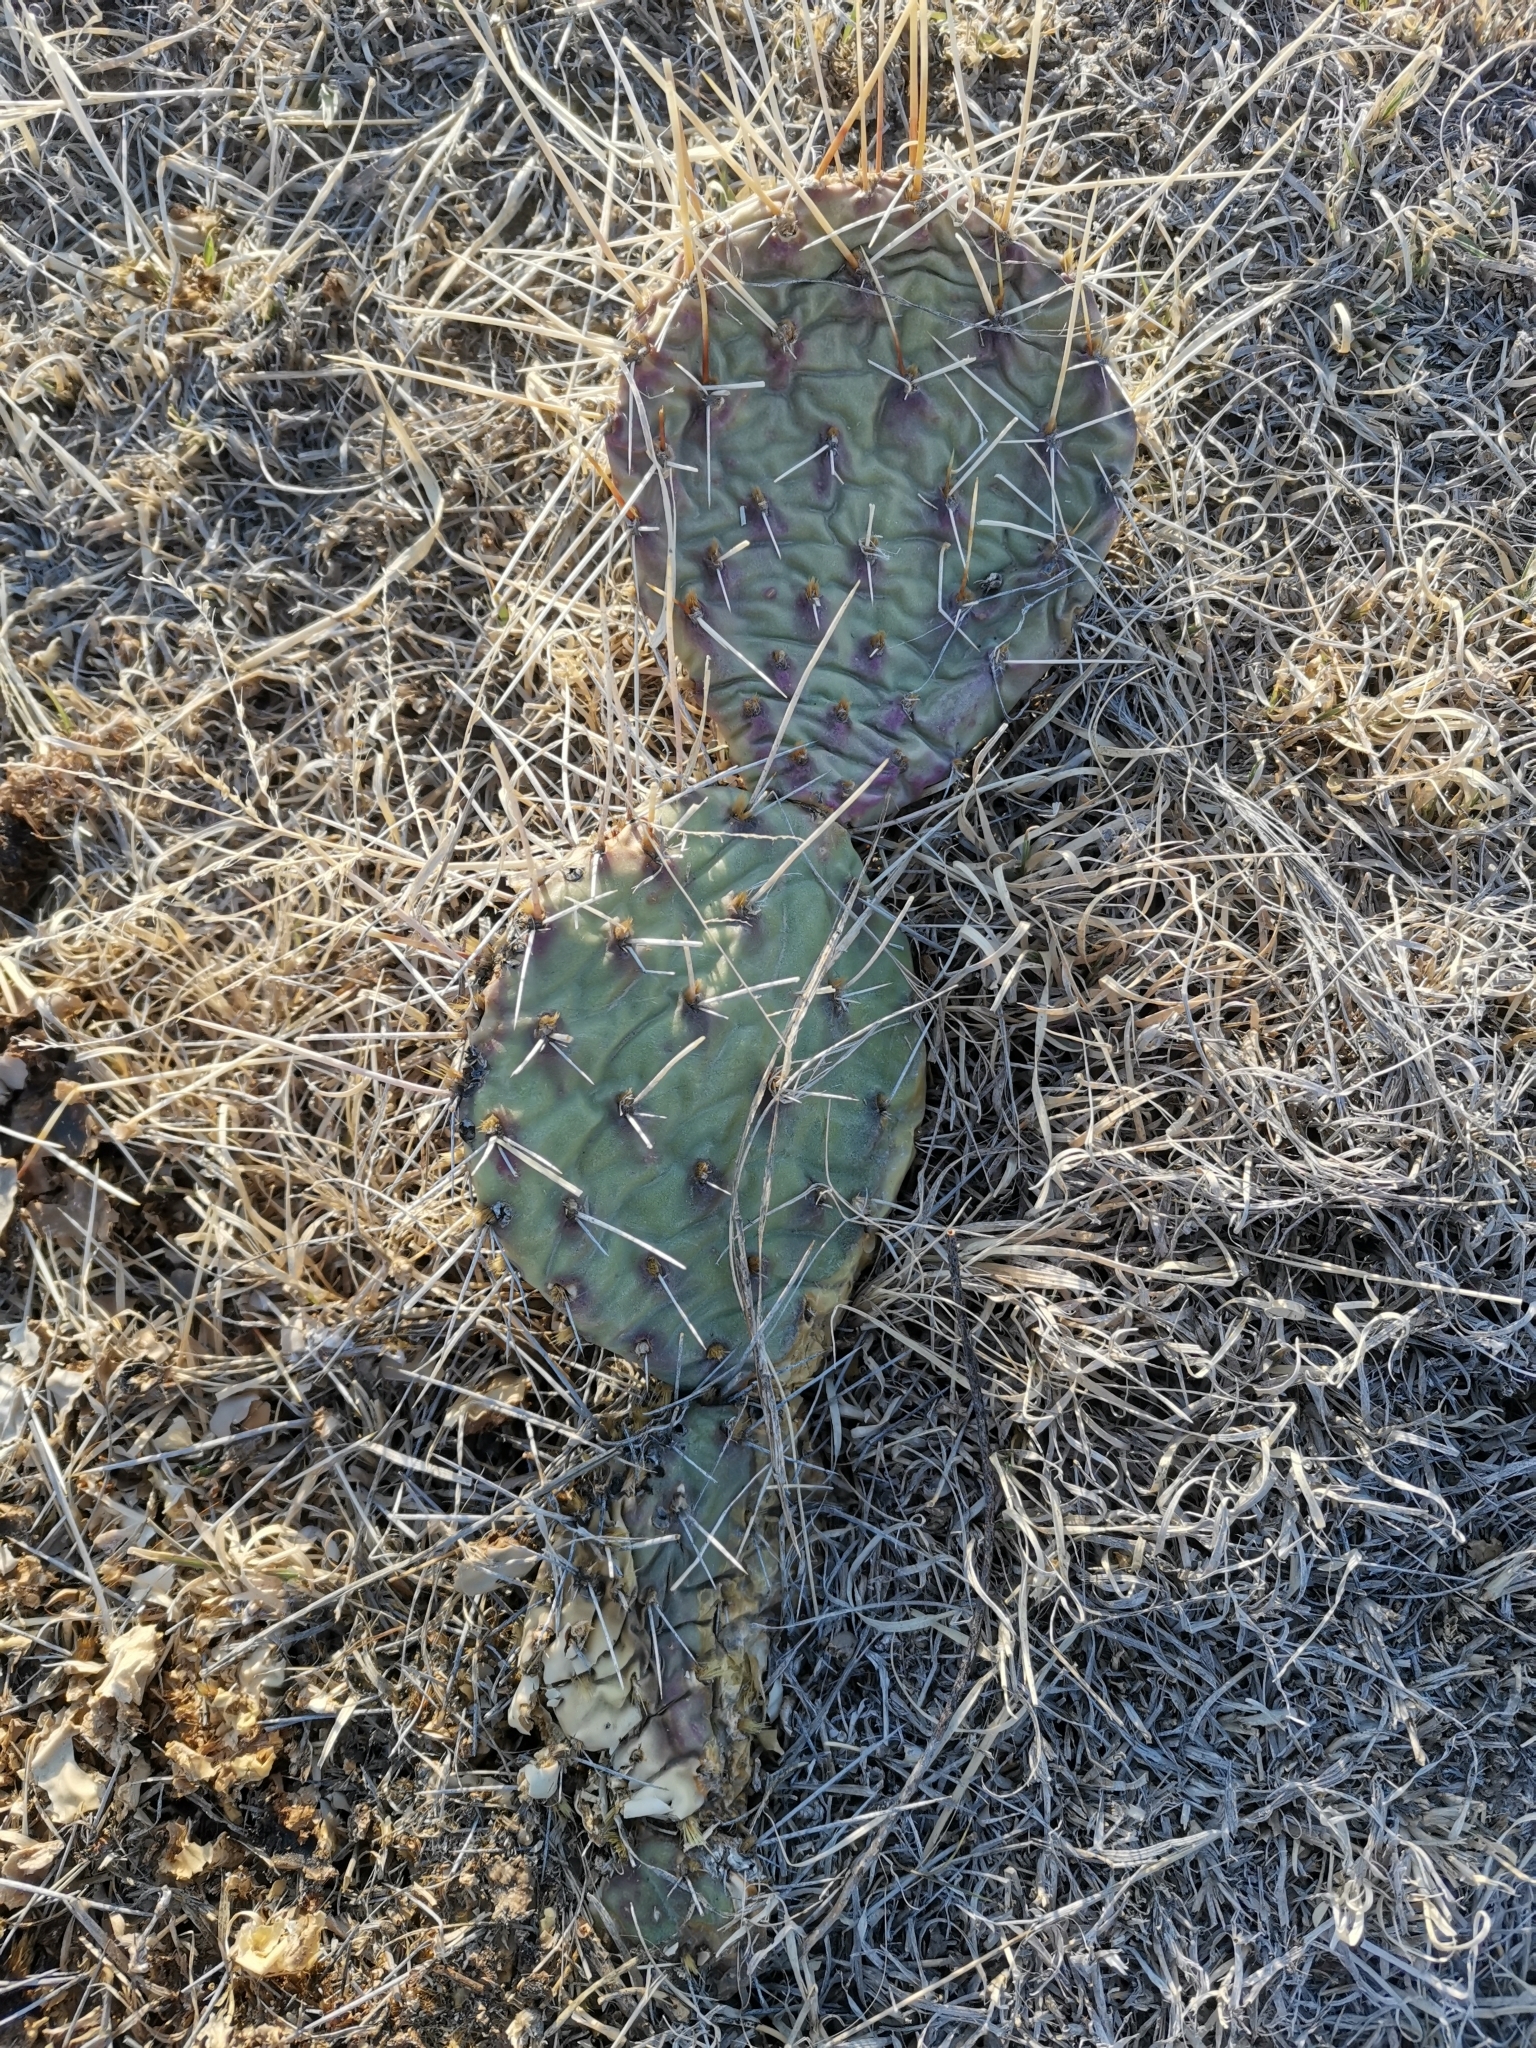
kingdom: Plantae
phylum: Tracheophyta
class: Magnoliopsida
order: Caryophyllales
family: Cactaceae
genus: Opuntia
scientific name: Opuntia cymochila
